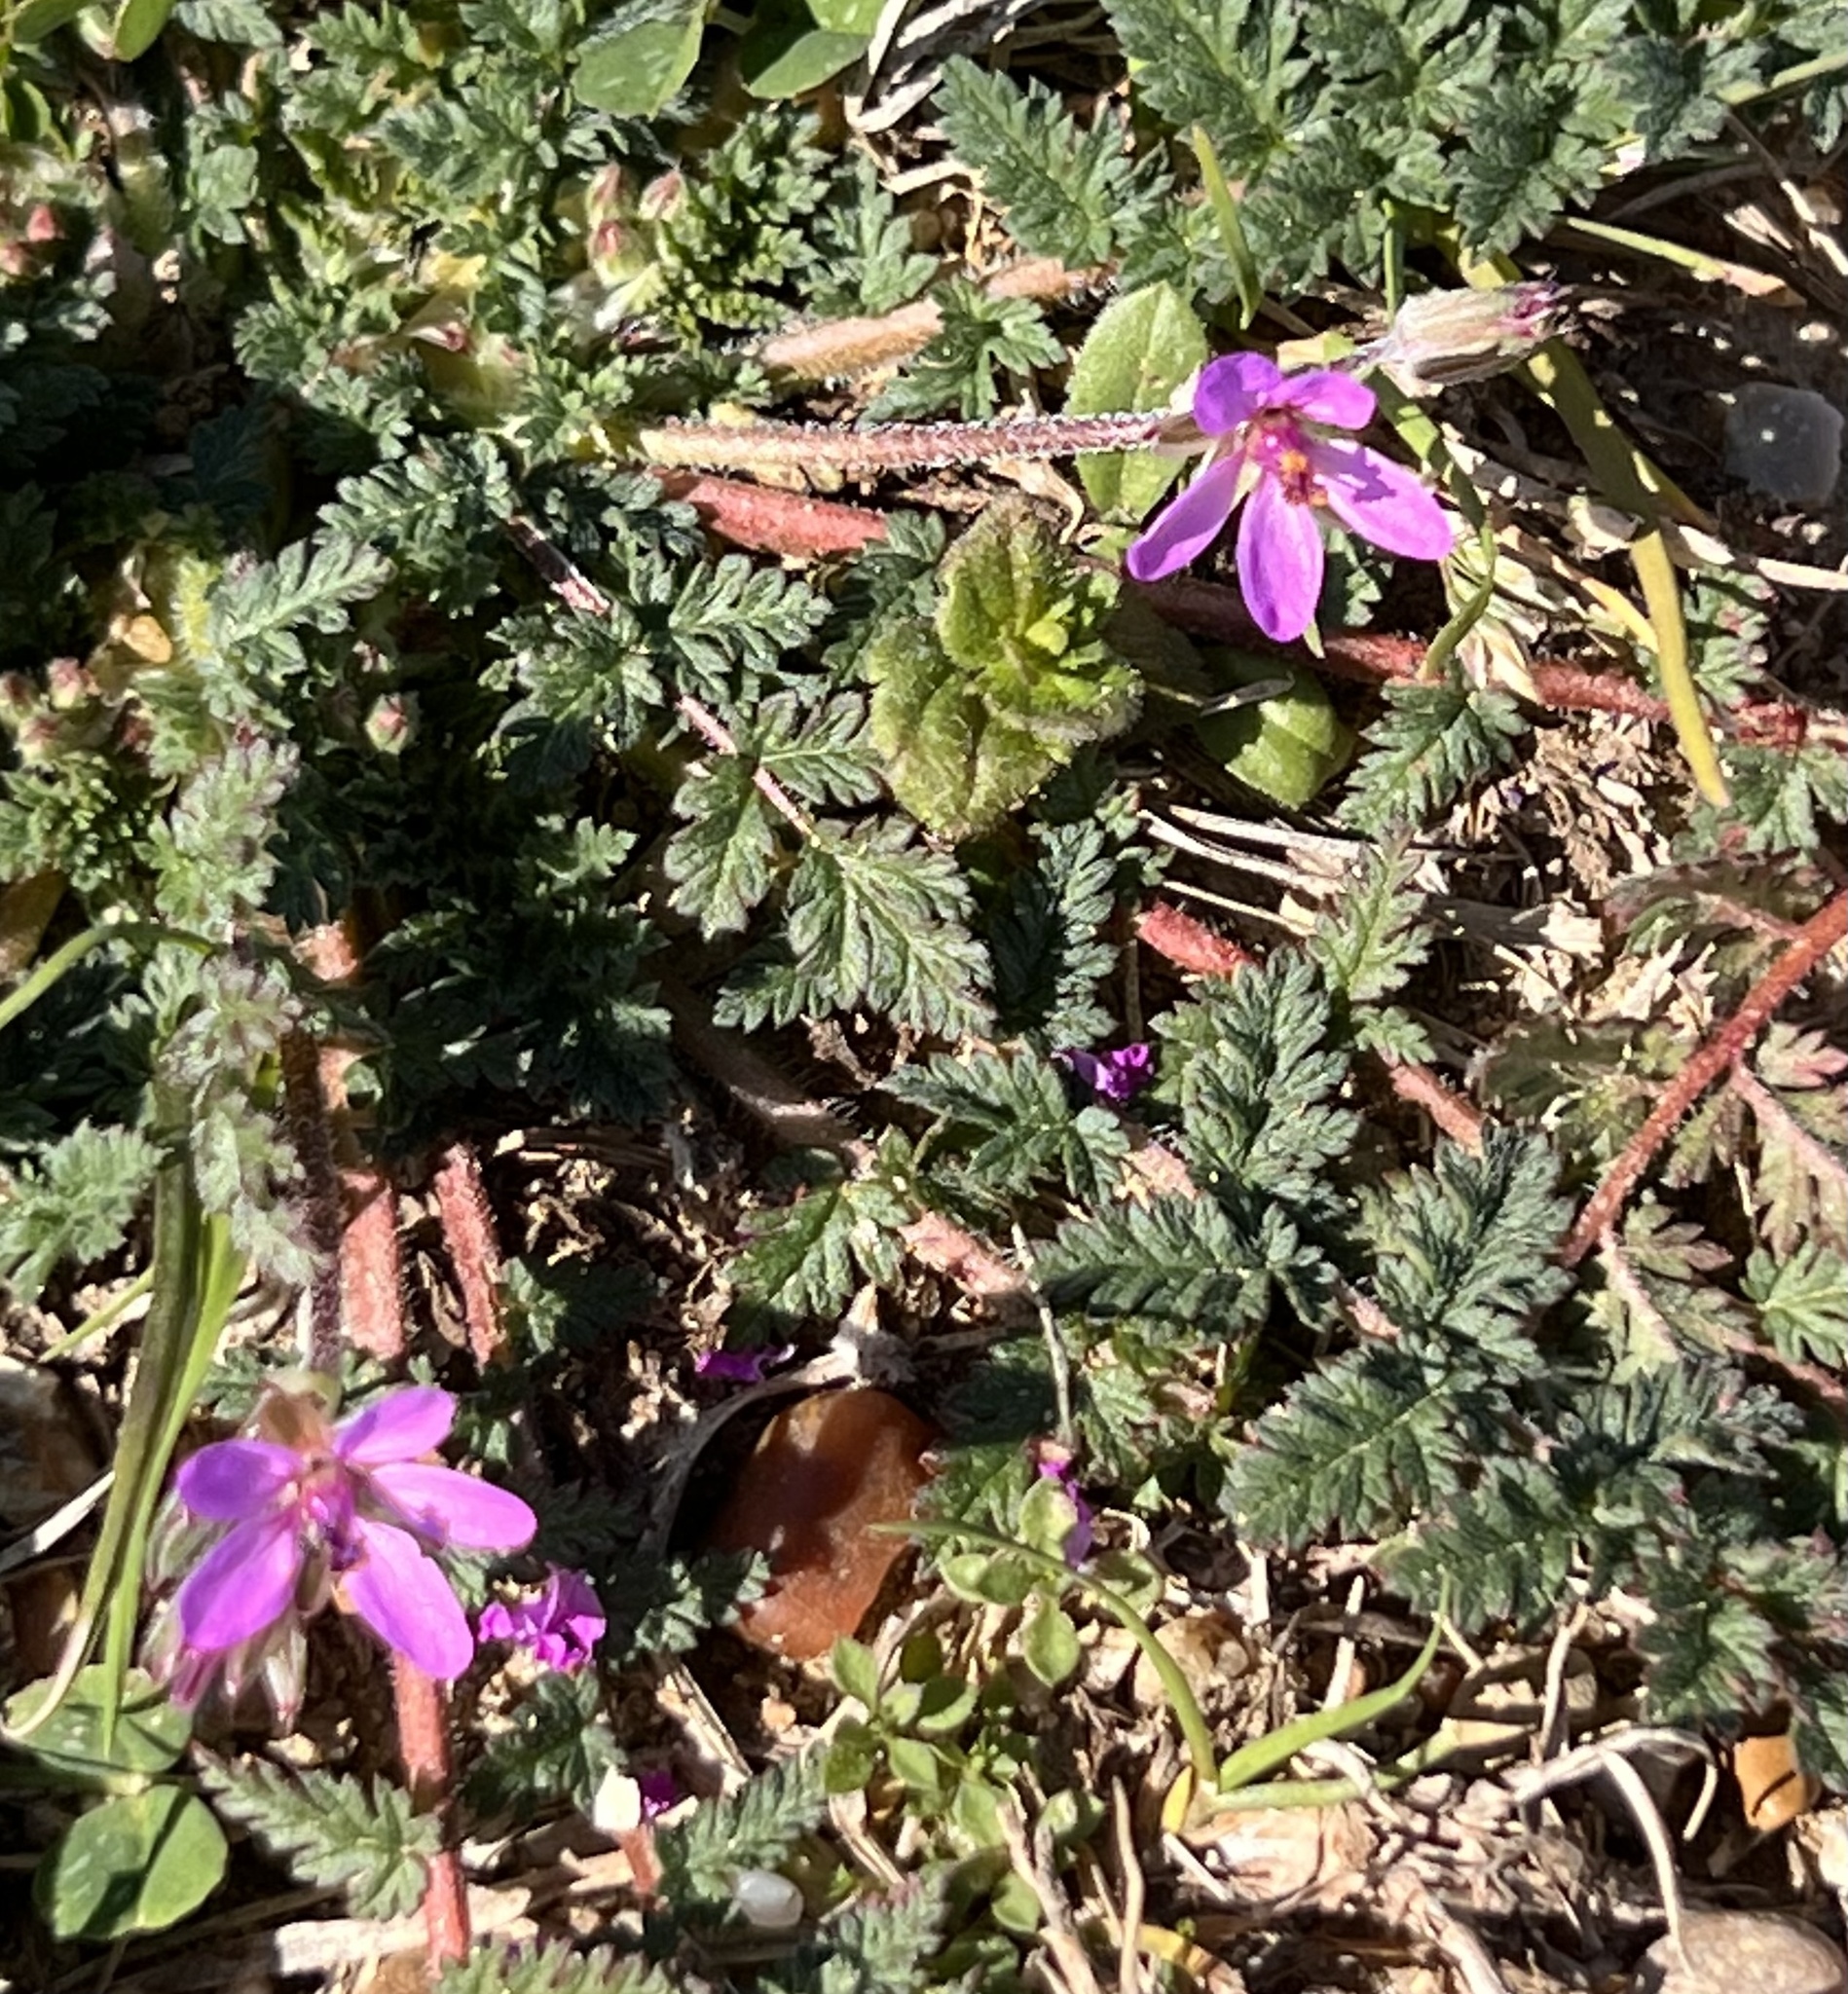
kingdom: Plantae
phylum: Tracheophyta
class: Magnoliopsida
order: Geraniales
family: Geraniaceae
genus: Erodium
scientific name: Erodium cicutarium
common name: Common stork's-bill
